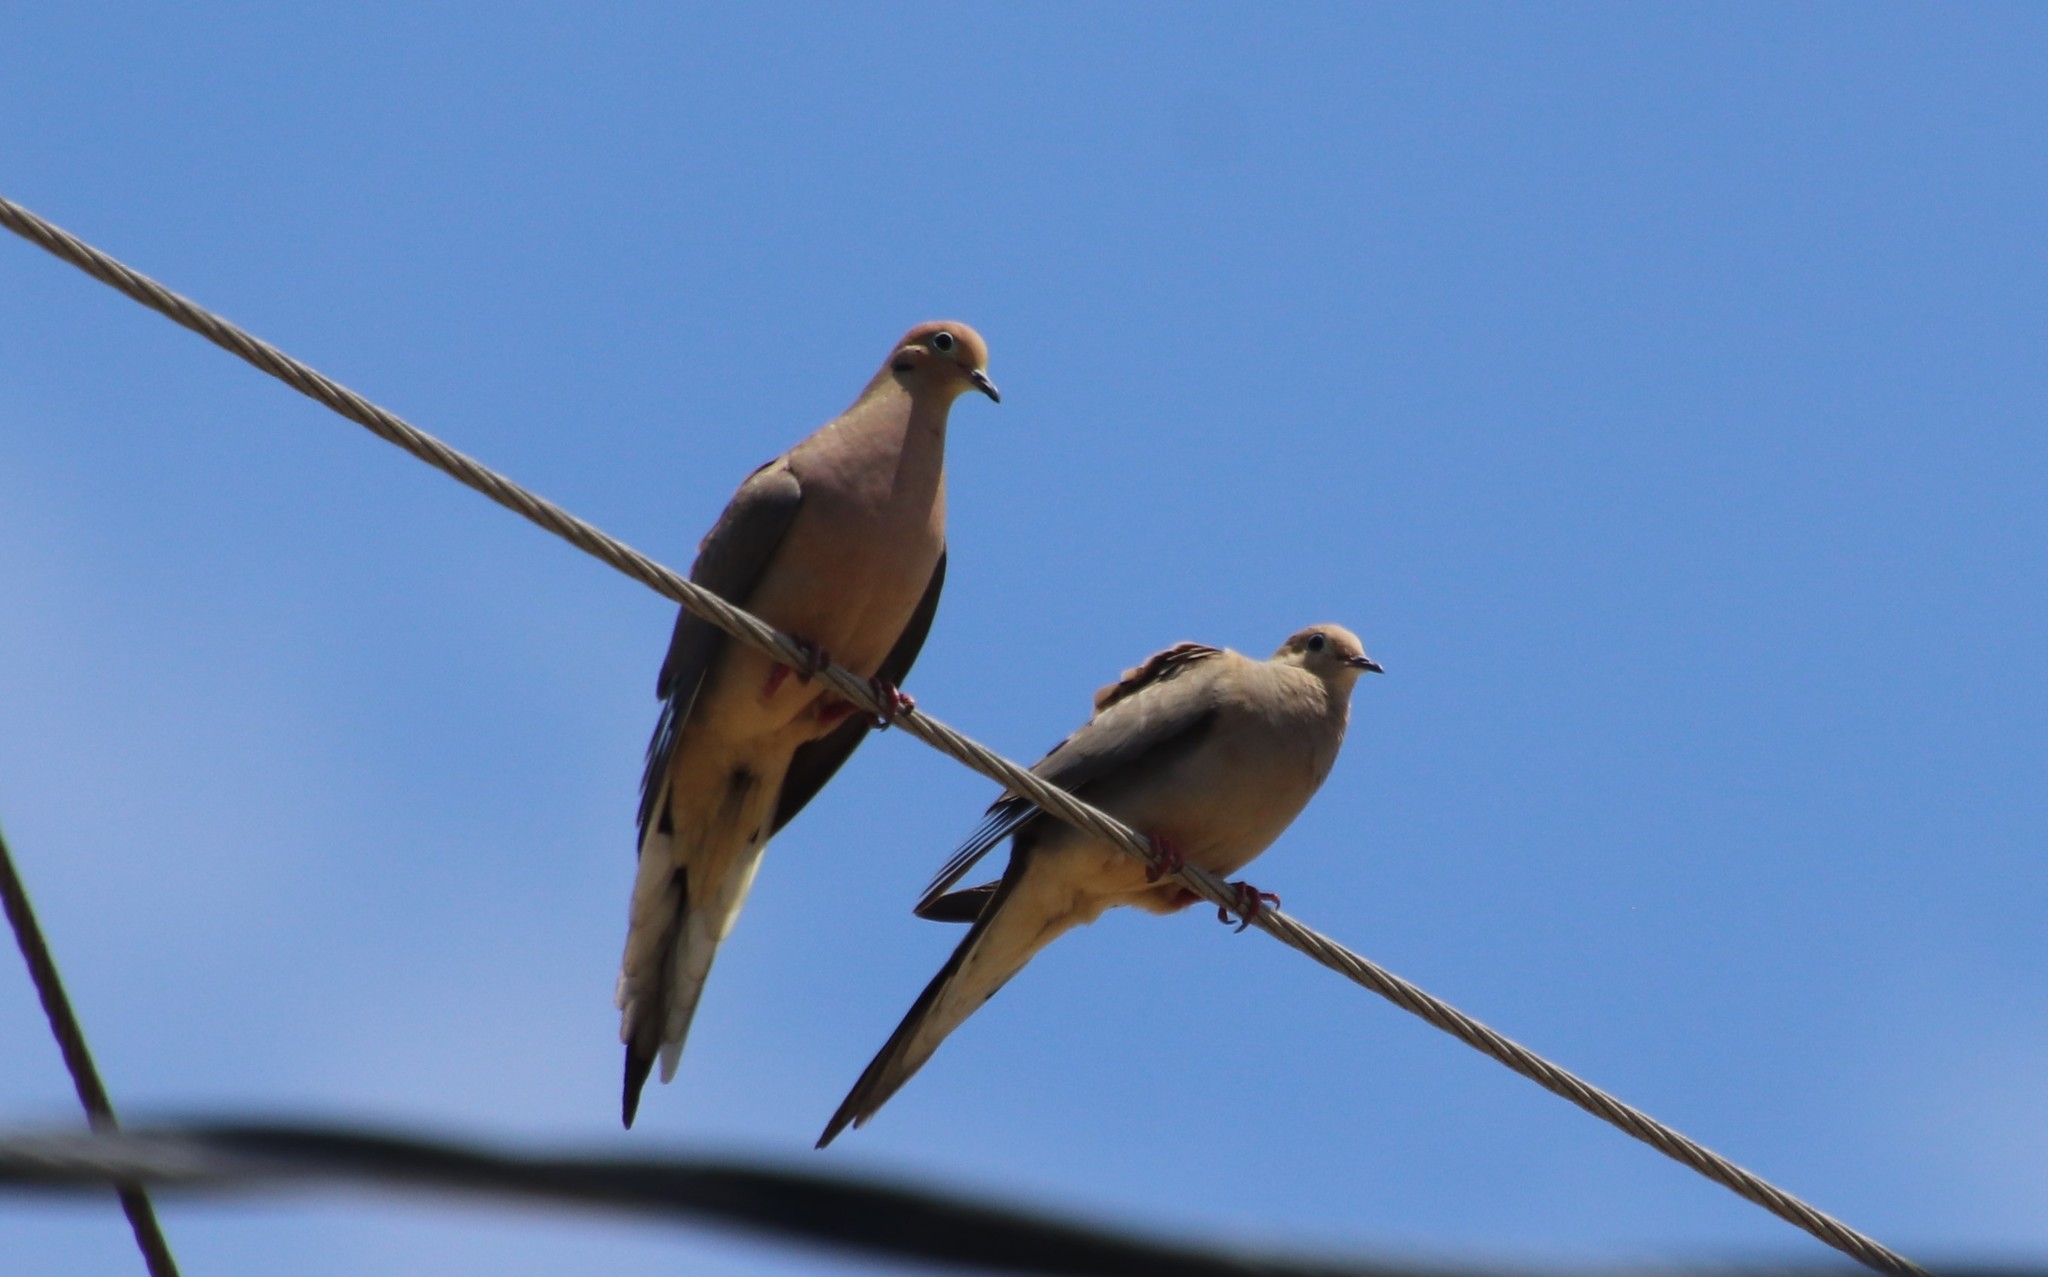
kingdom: Animalia
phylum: Chordata
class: Aves
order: Columbiformes
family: Columbidae
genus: Zenaida
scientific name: Zenaida macroura
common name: Mourning dove
